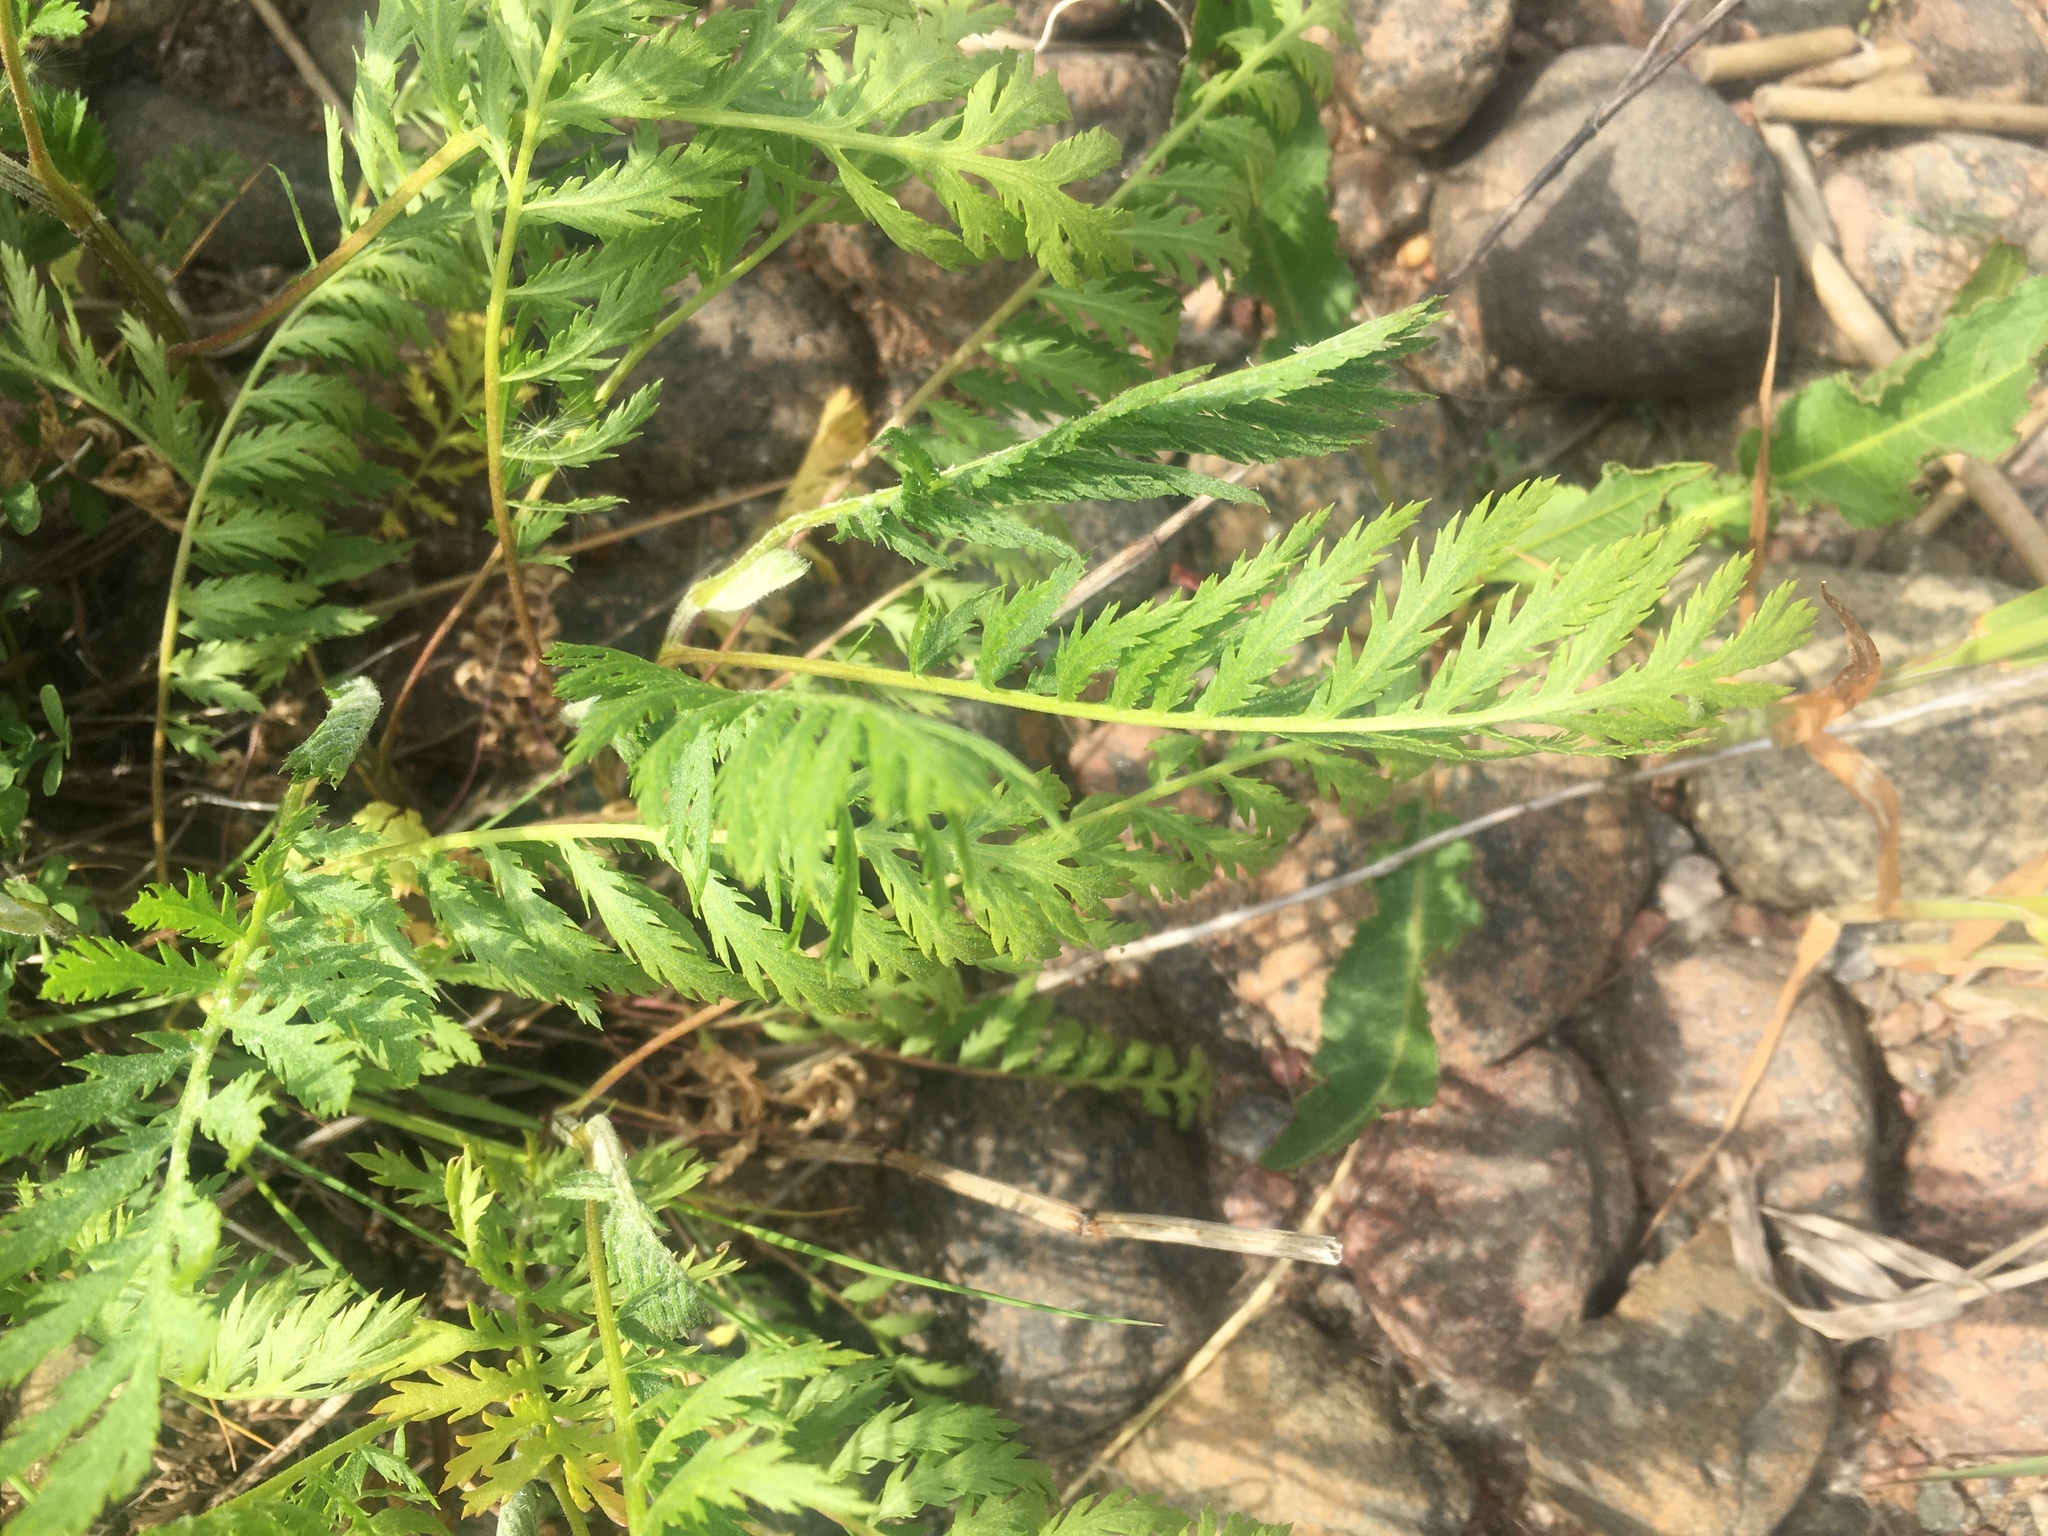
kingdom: Plantae
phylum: Tracheophyta
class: Magnoliopsida
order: Asterales
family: Asteraceae
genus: Tanacetum
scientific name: Tanacetum vulgare
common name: Common tansy
